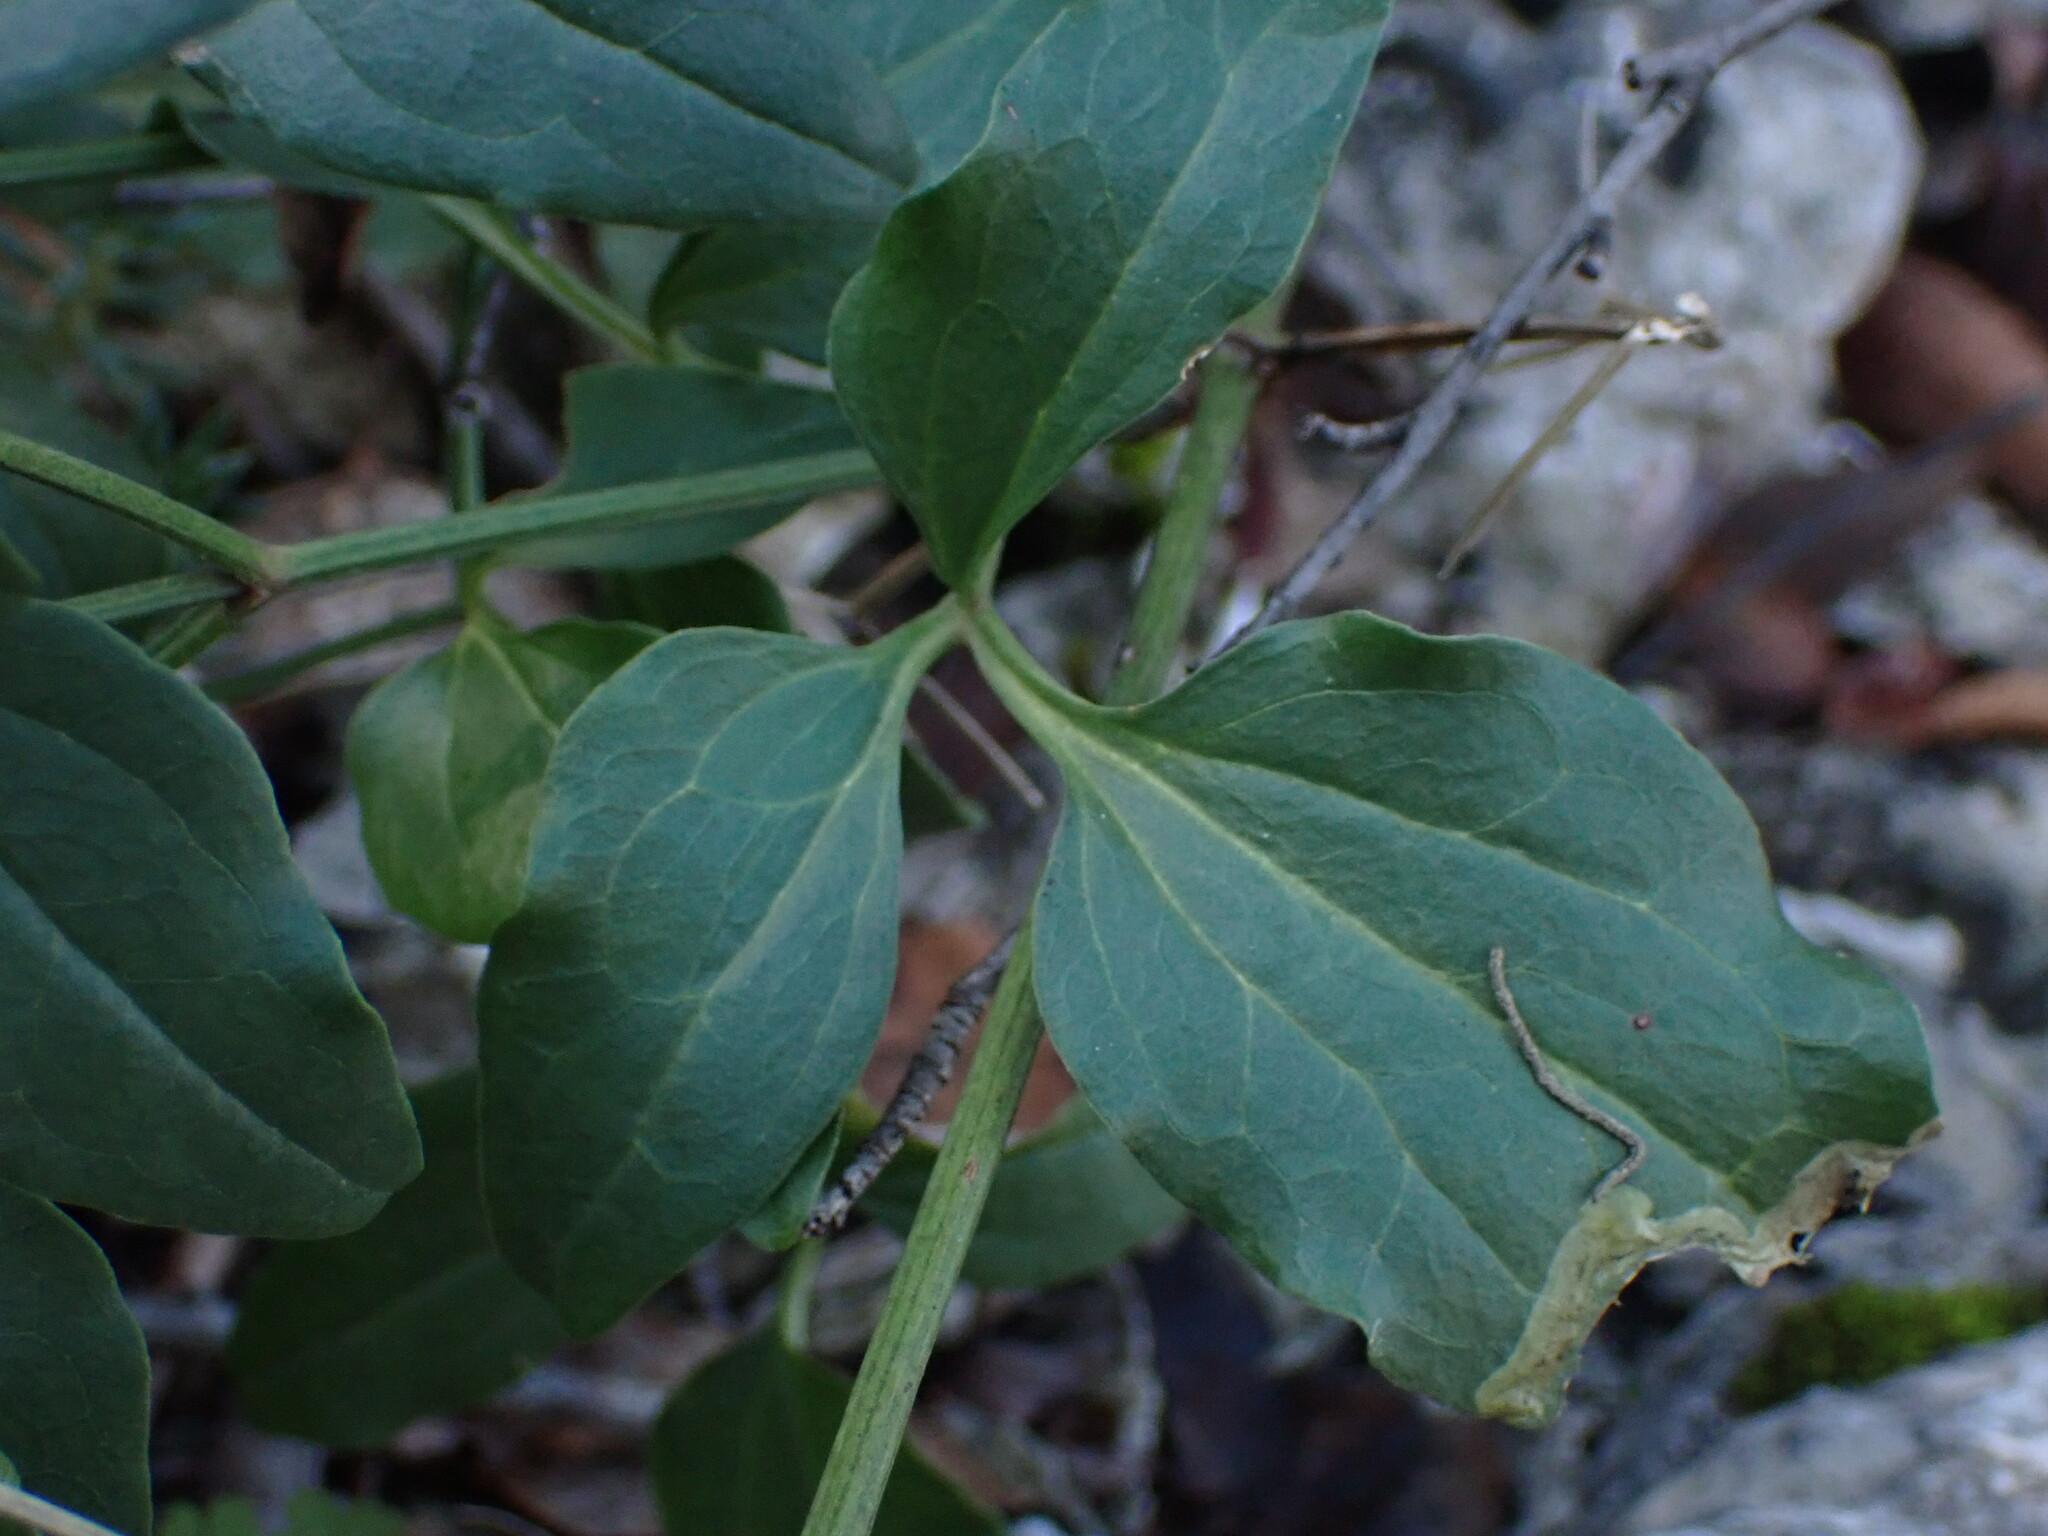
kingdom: Plantae
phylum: Tracheophyta
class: Magnoliopsida
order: Ranunculales
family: Ranunculaceae
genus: Clematis
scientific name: Clematis flammula
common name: Virgin's-bower
